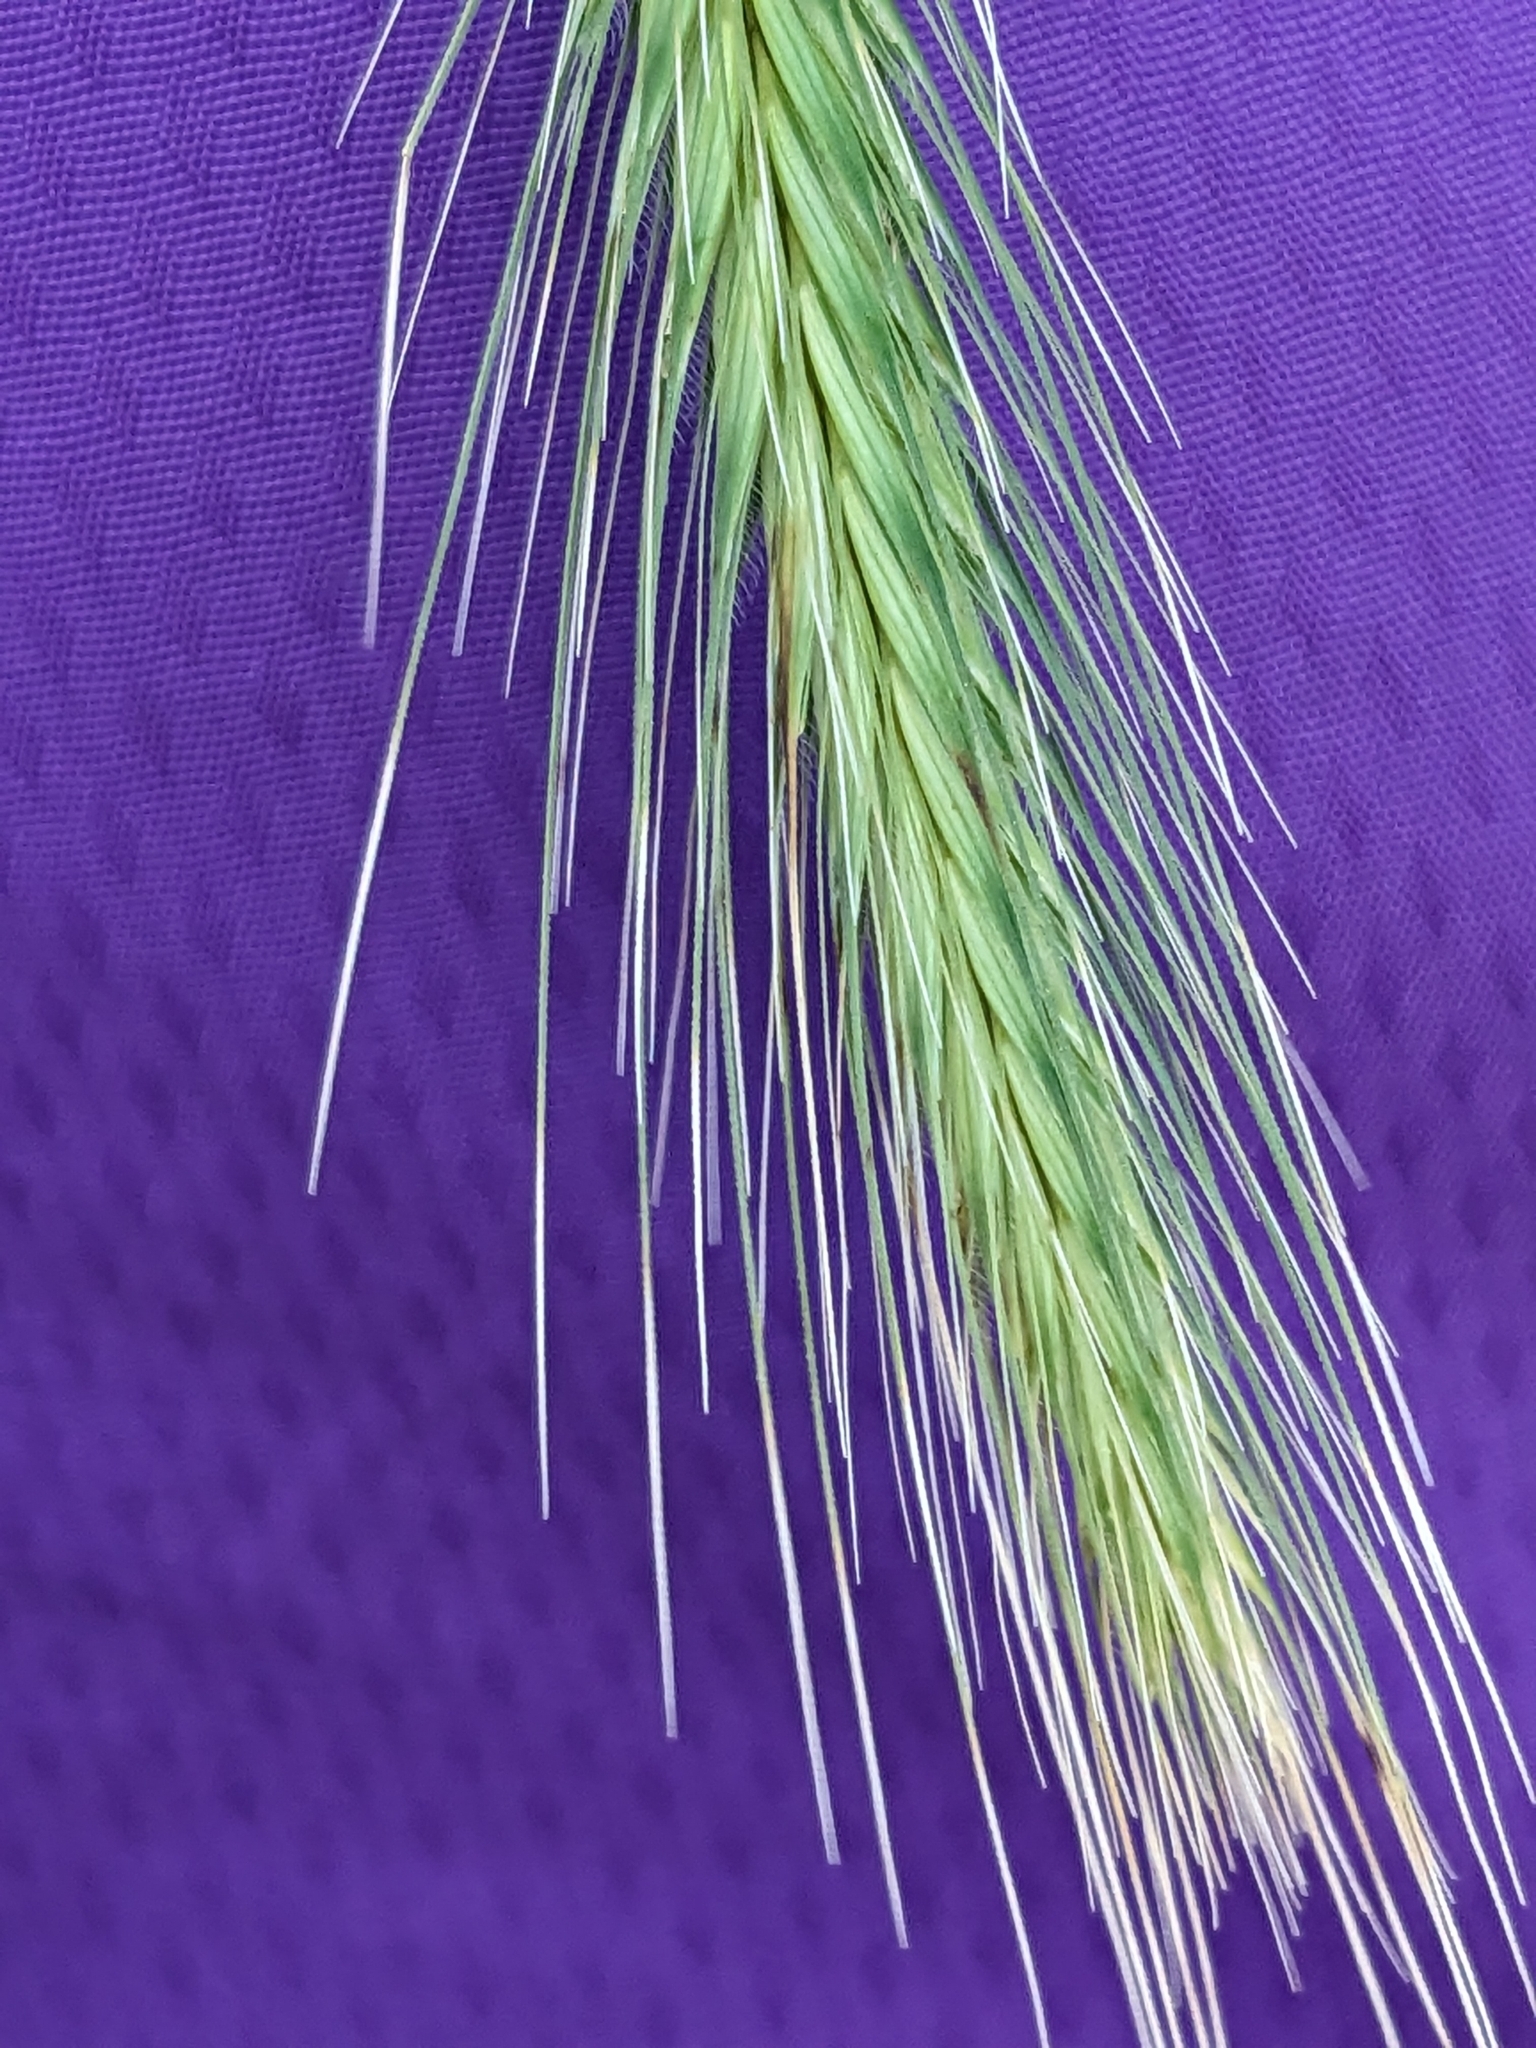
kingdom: Plantae
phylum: Tracheophyta
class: Liliopsida
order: Poales
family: Poaceae
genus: Hordeum
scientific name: Hordeum murinum
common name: Wall barley
